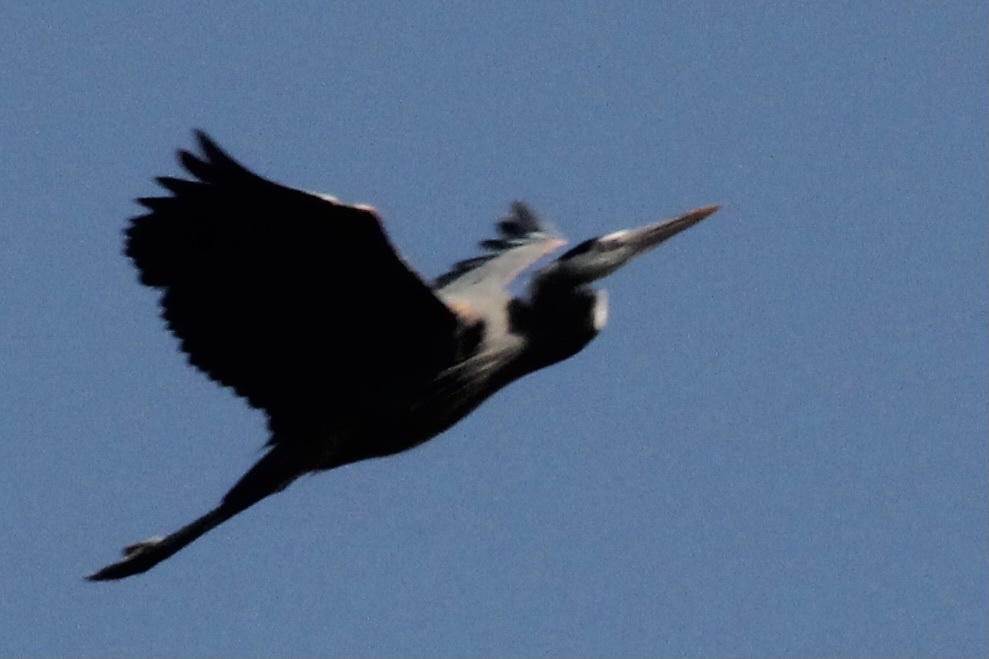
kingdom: Animalia
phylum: Chordata
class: Aves
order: Pelecaniformes
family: Ardeidae
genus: Ardea
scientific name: Ardea herodias
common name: Great blue heron
